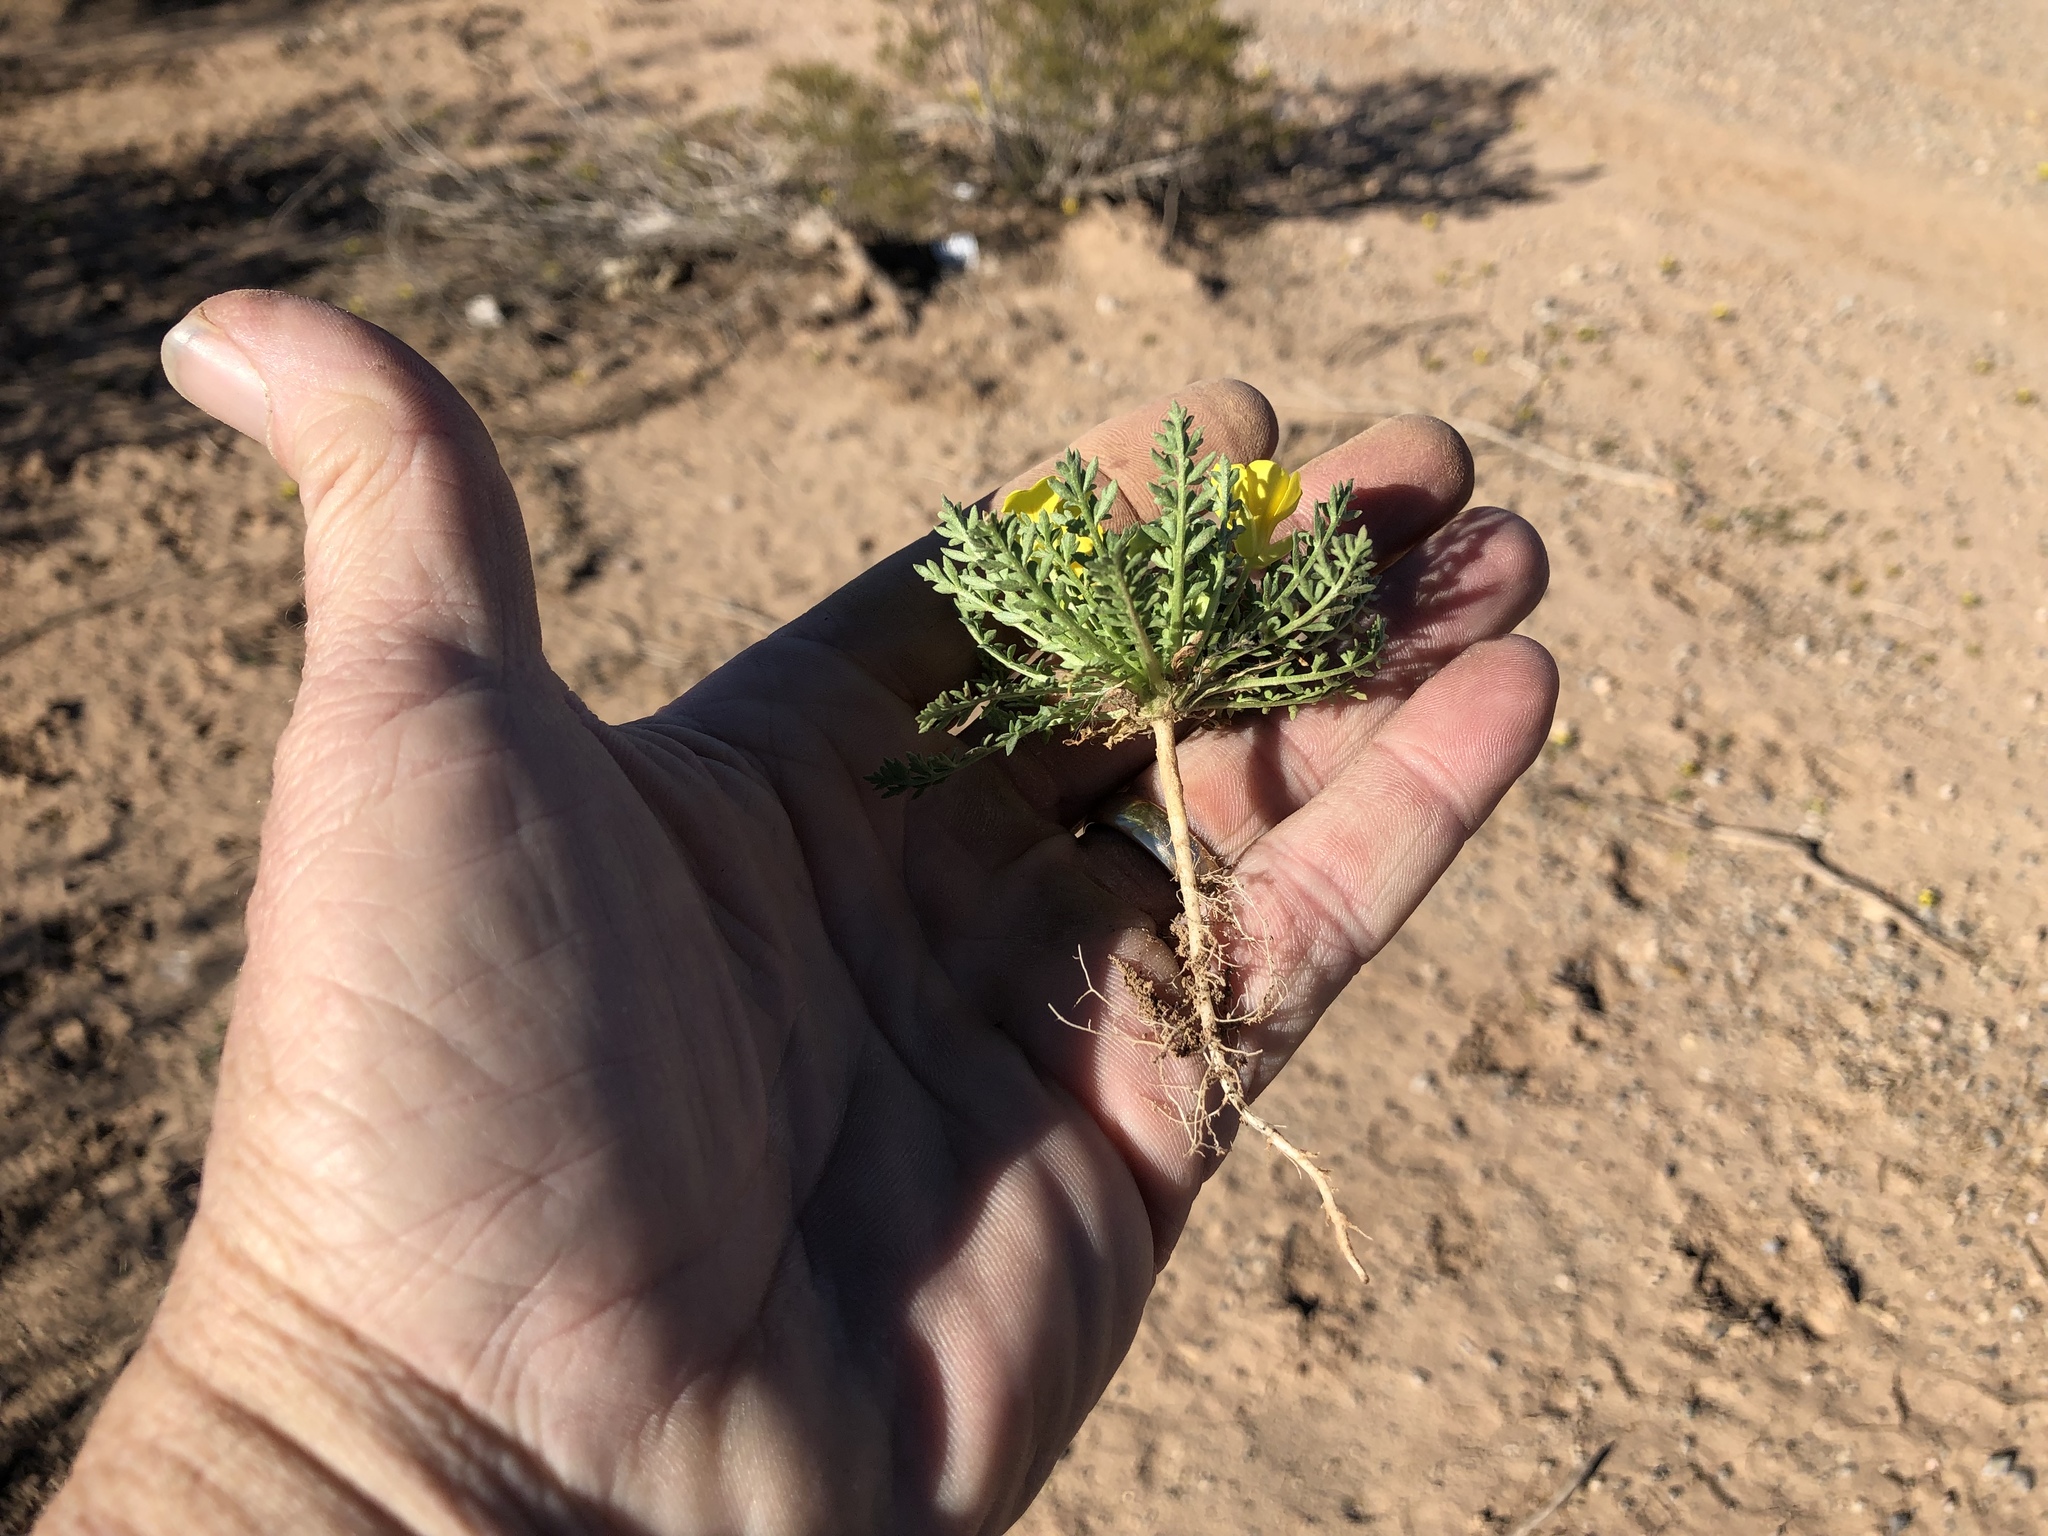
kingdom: Plantae
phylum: Tracheophyta
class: Magnoliopsida
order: Brassicales
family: Brassicaceae
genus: Selenia
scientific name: Selenia dissecta
